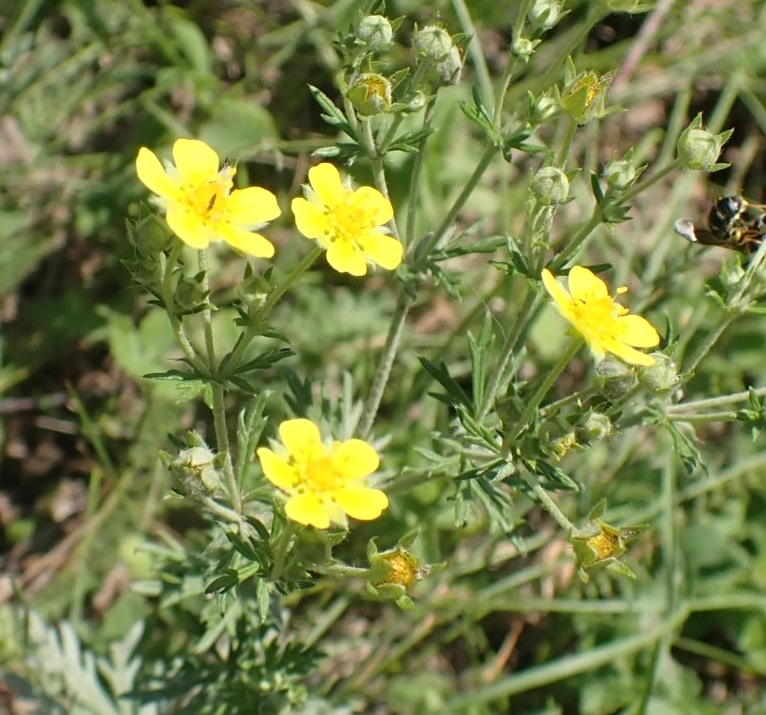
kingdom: Plantae
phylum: Tracheophyta
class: Magnoliopsida
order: Rosales
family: Rosaceae
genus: Potentilla
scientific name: Potentilla argentea
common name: Hoary cinquefoil
